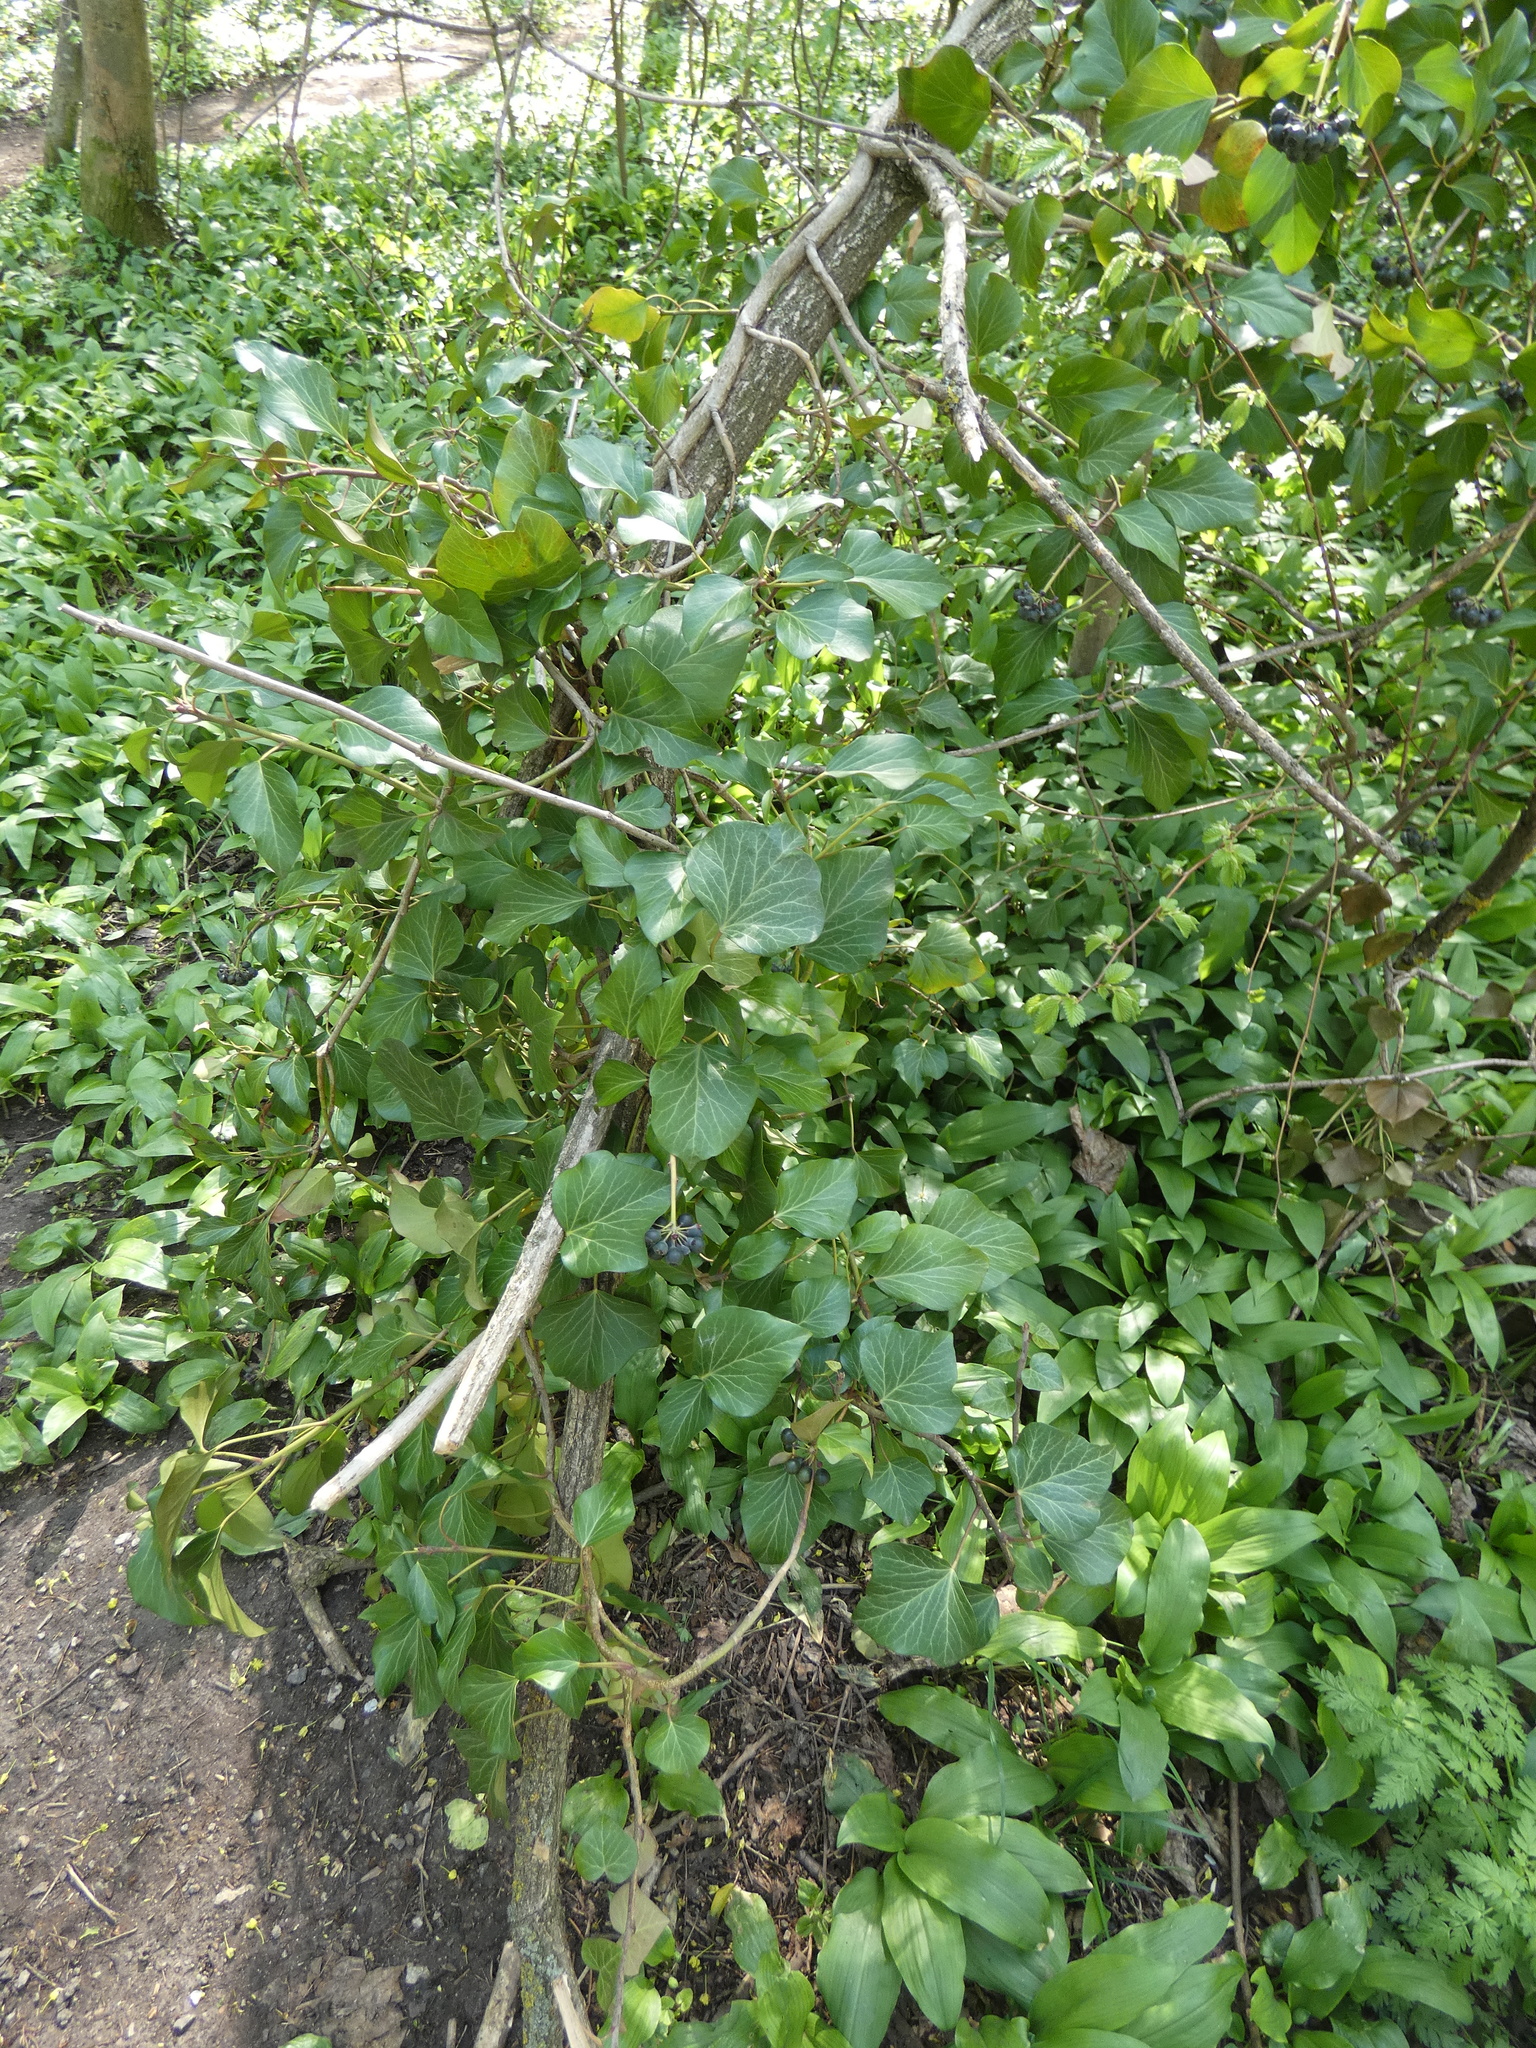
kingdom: Plantae
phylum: Tracheophyta
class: Magnoliopsida
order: Apiales
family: Araliaceae
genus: Hedera
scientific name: Hedera helix
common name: Ivy
